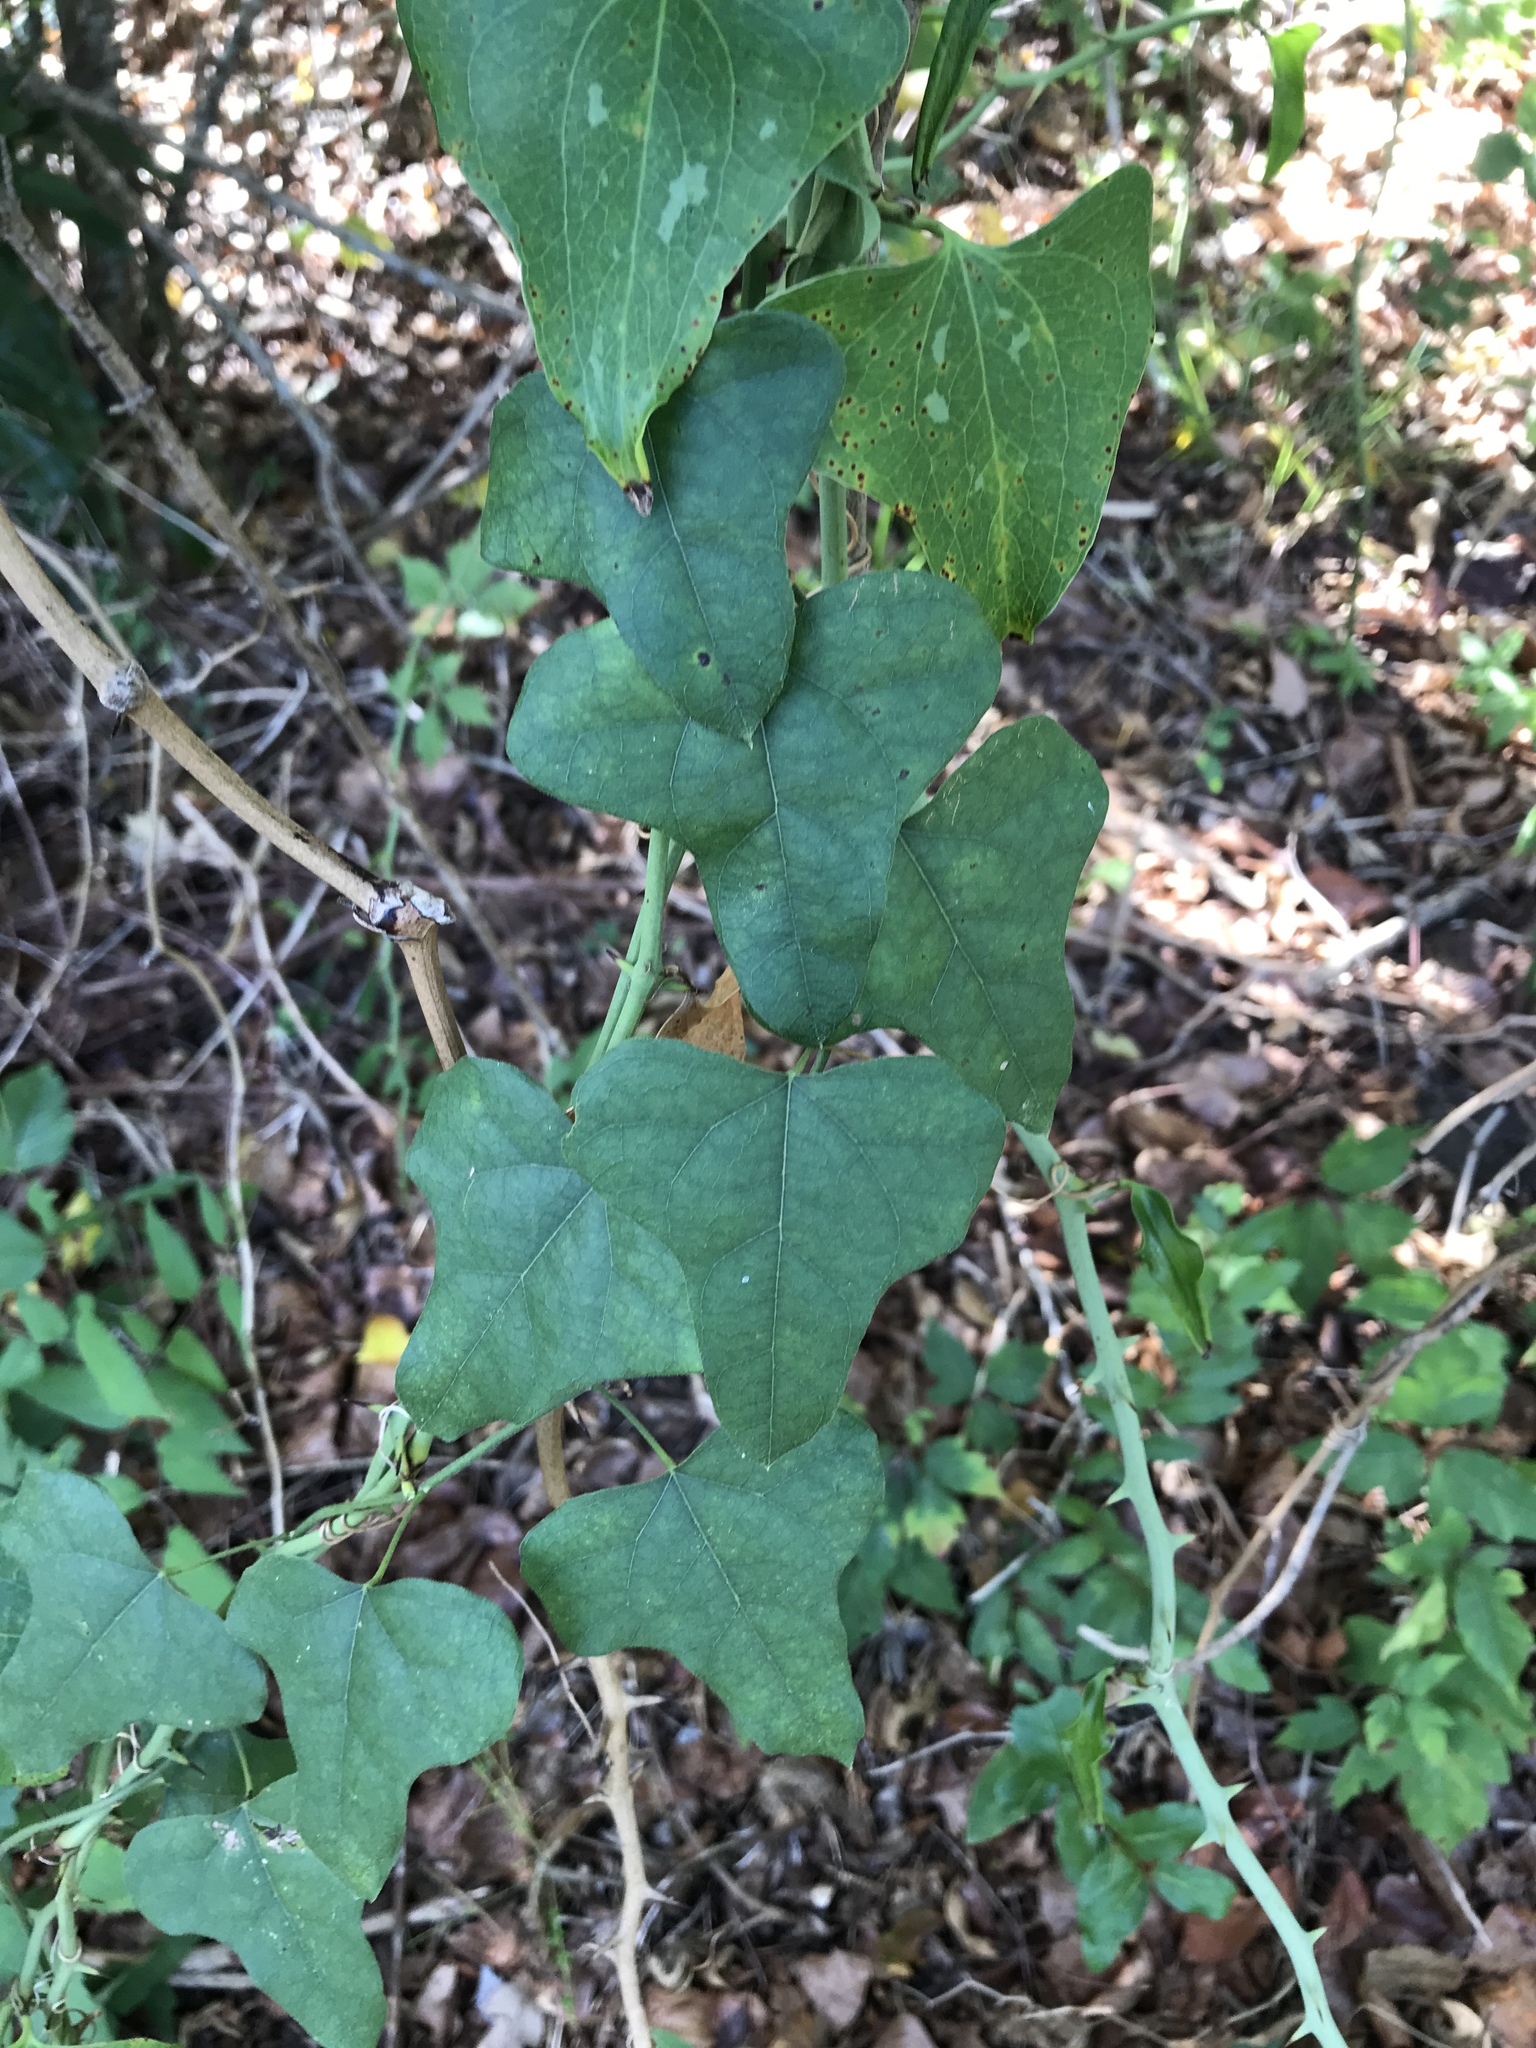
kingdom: Plantae
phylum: Tracheophyta
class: Magnoliopsida
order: Ranunculales
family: Menispermaceae
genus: Cocculus
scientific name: Cocculus carolinus
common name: Carolina moonseed
